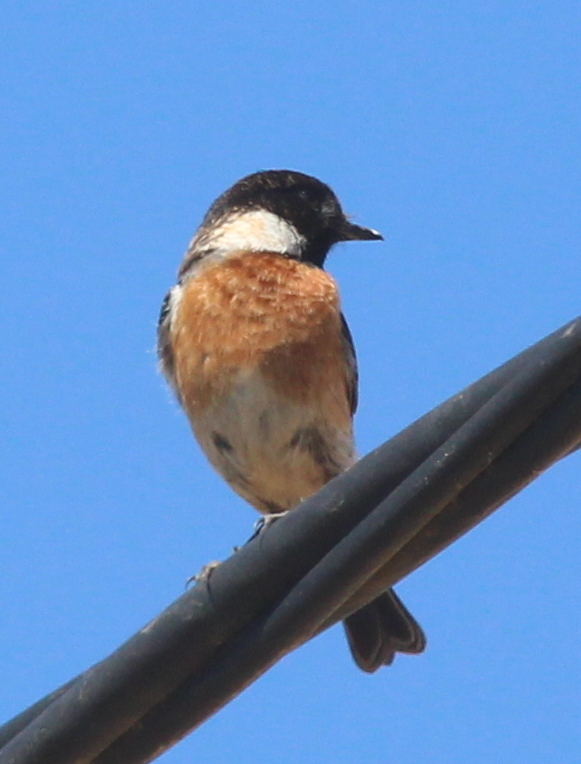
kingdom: Animalia
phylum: Chordata
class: Aves
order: Passeriformes
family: Muscicapidae
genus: Saxicola
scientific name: Saxicola rubicola
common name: European stonechat
